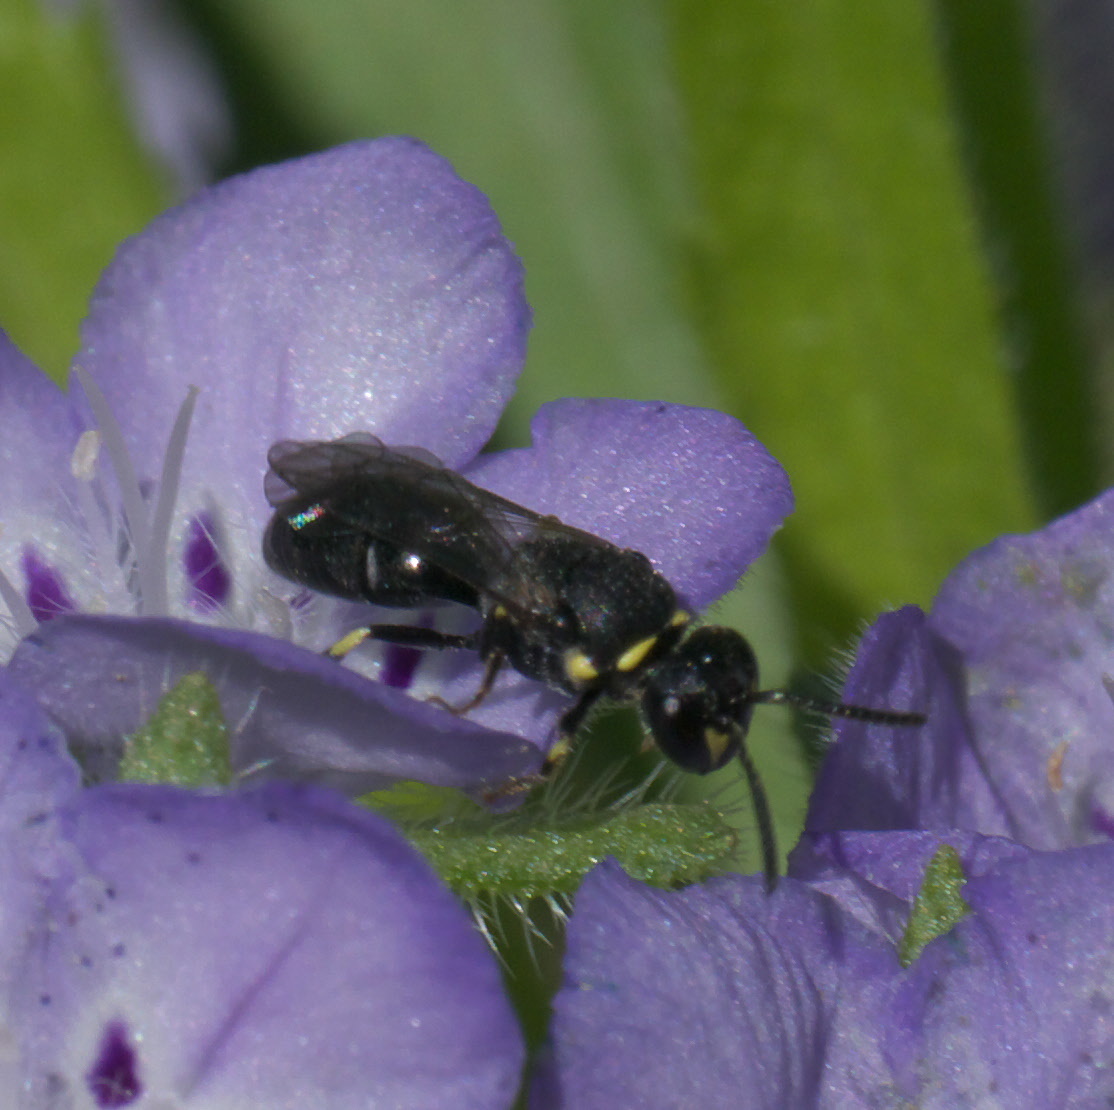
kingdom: Animalia
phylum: Arthropoda
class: Insecta
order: Hymenoptera
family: Colletidae
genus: Hylaeus
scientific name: Hylaeus modestus
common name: Yellow-faced bee
